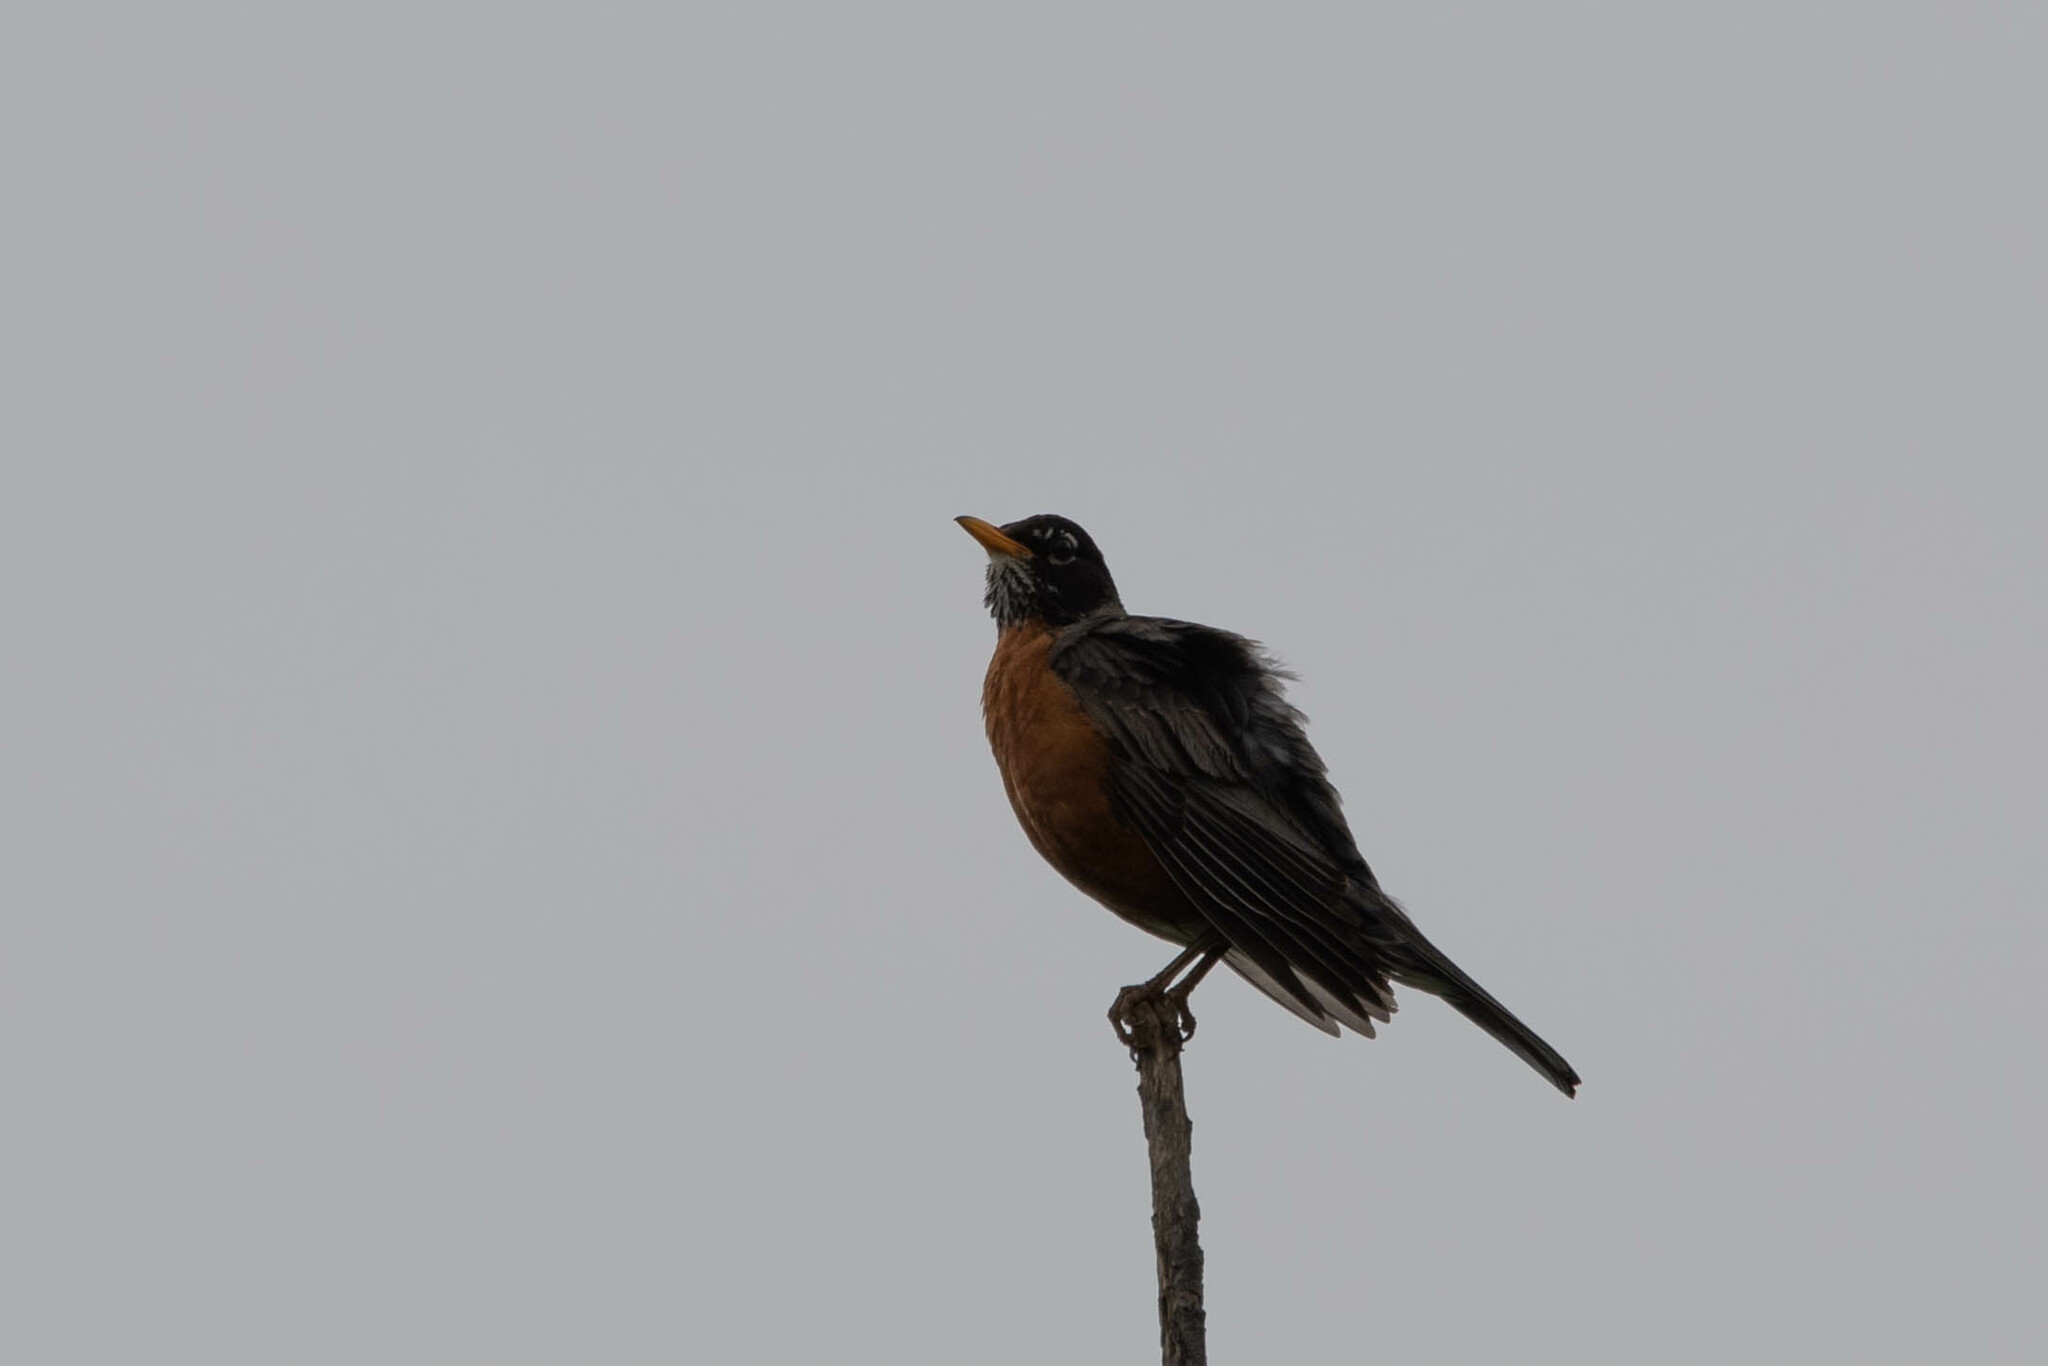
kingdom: Animalia
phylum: Chordata
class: Aves
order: Passeriformes
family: Turdidae
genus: Turdus
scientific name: Turdus migratorius
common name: American robin
